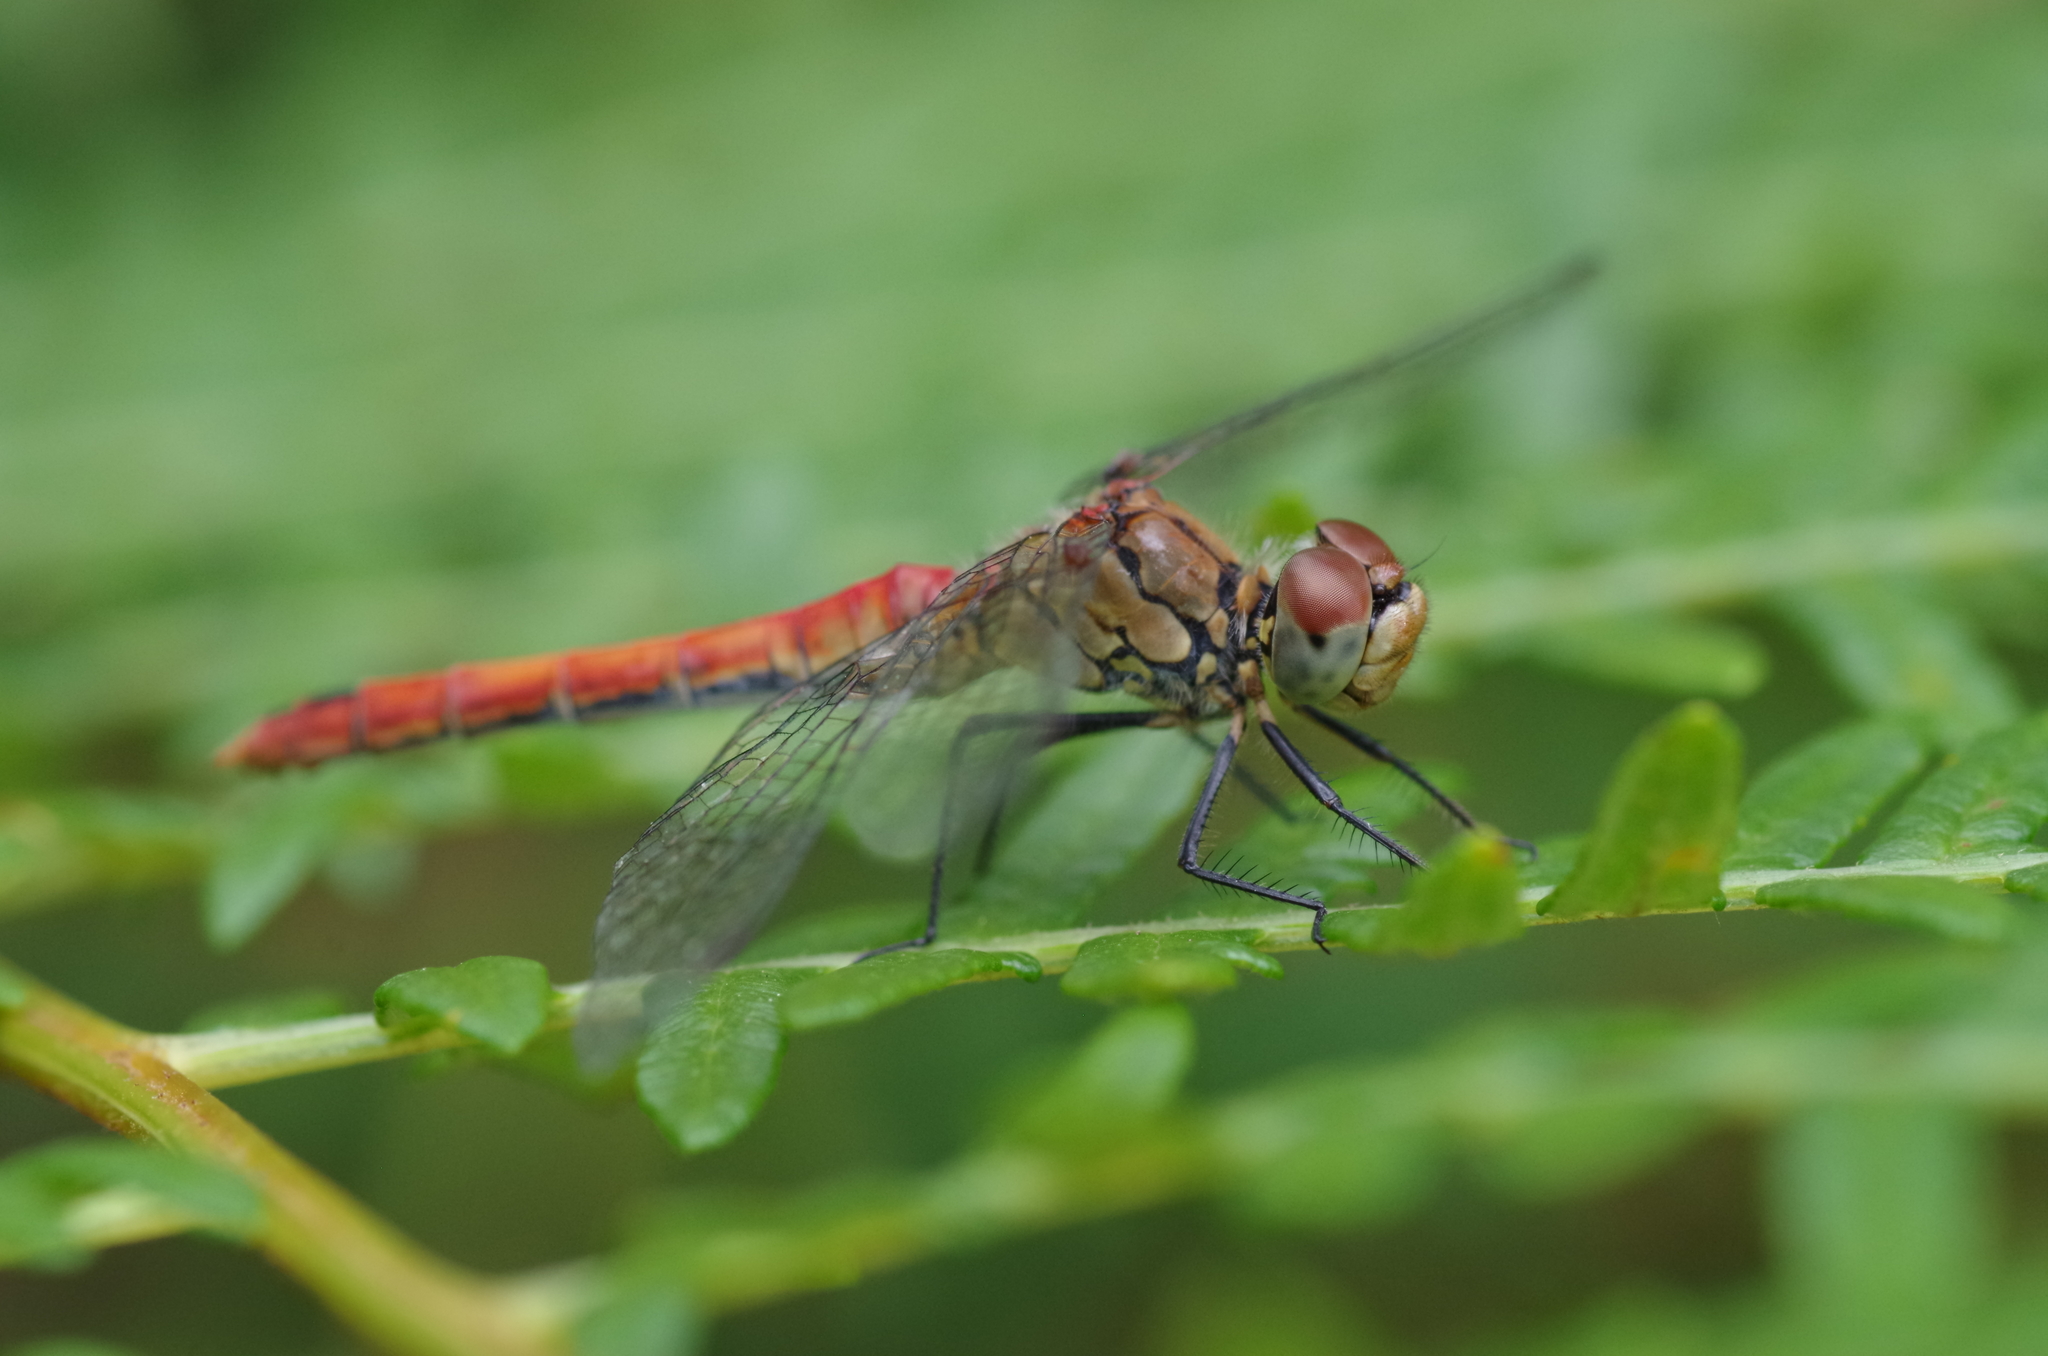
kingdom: Animalia
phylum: Arthropoda
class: Insecta
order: Odonata
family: Libellulidae
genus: Sympetrum
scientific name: Sympetrum sanguineum
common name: Ruddy darter
